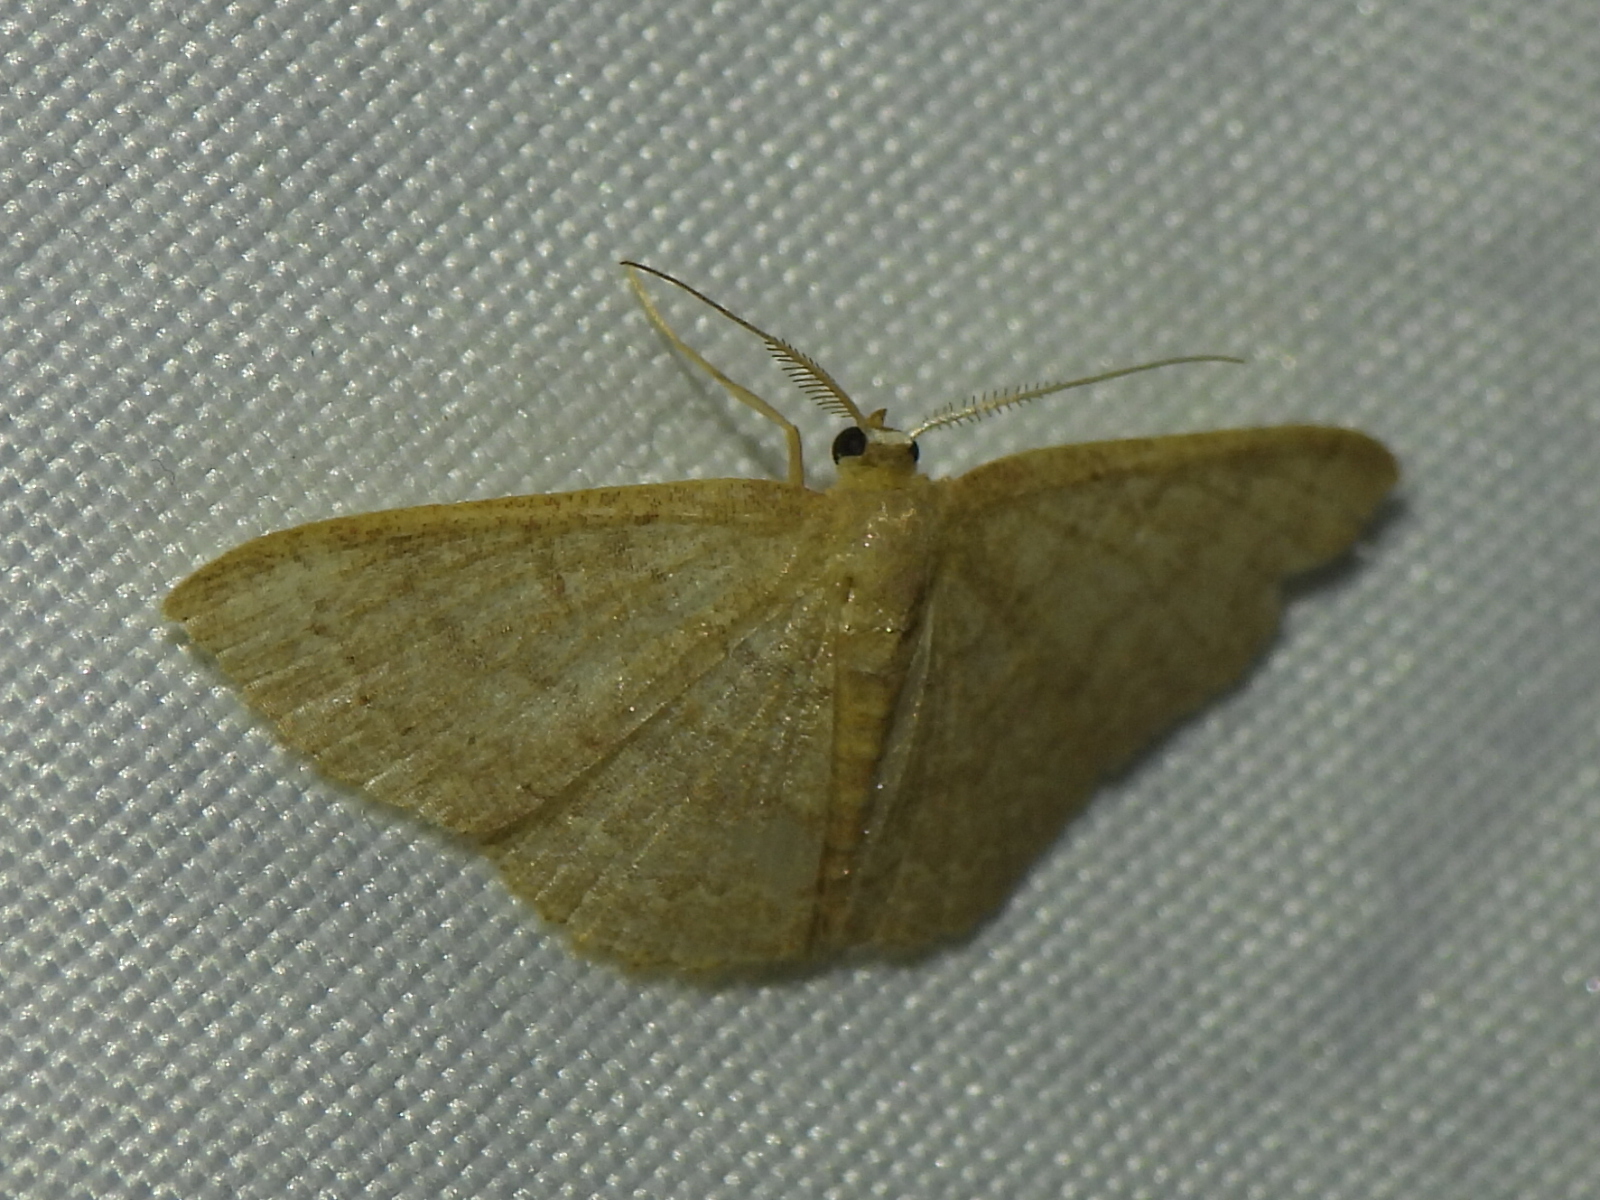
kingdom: Animalia
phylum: Arthropoda
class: Insecta
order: Lepidoptera
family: Geometridae
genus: Pleuroprucha
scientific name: Pleuroprucha insulsaria
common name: Common tan wave
